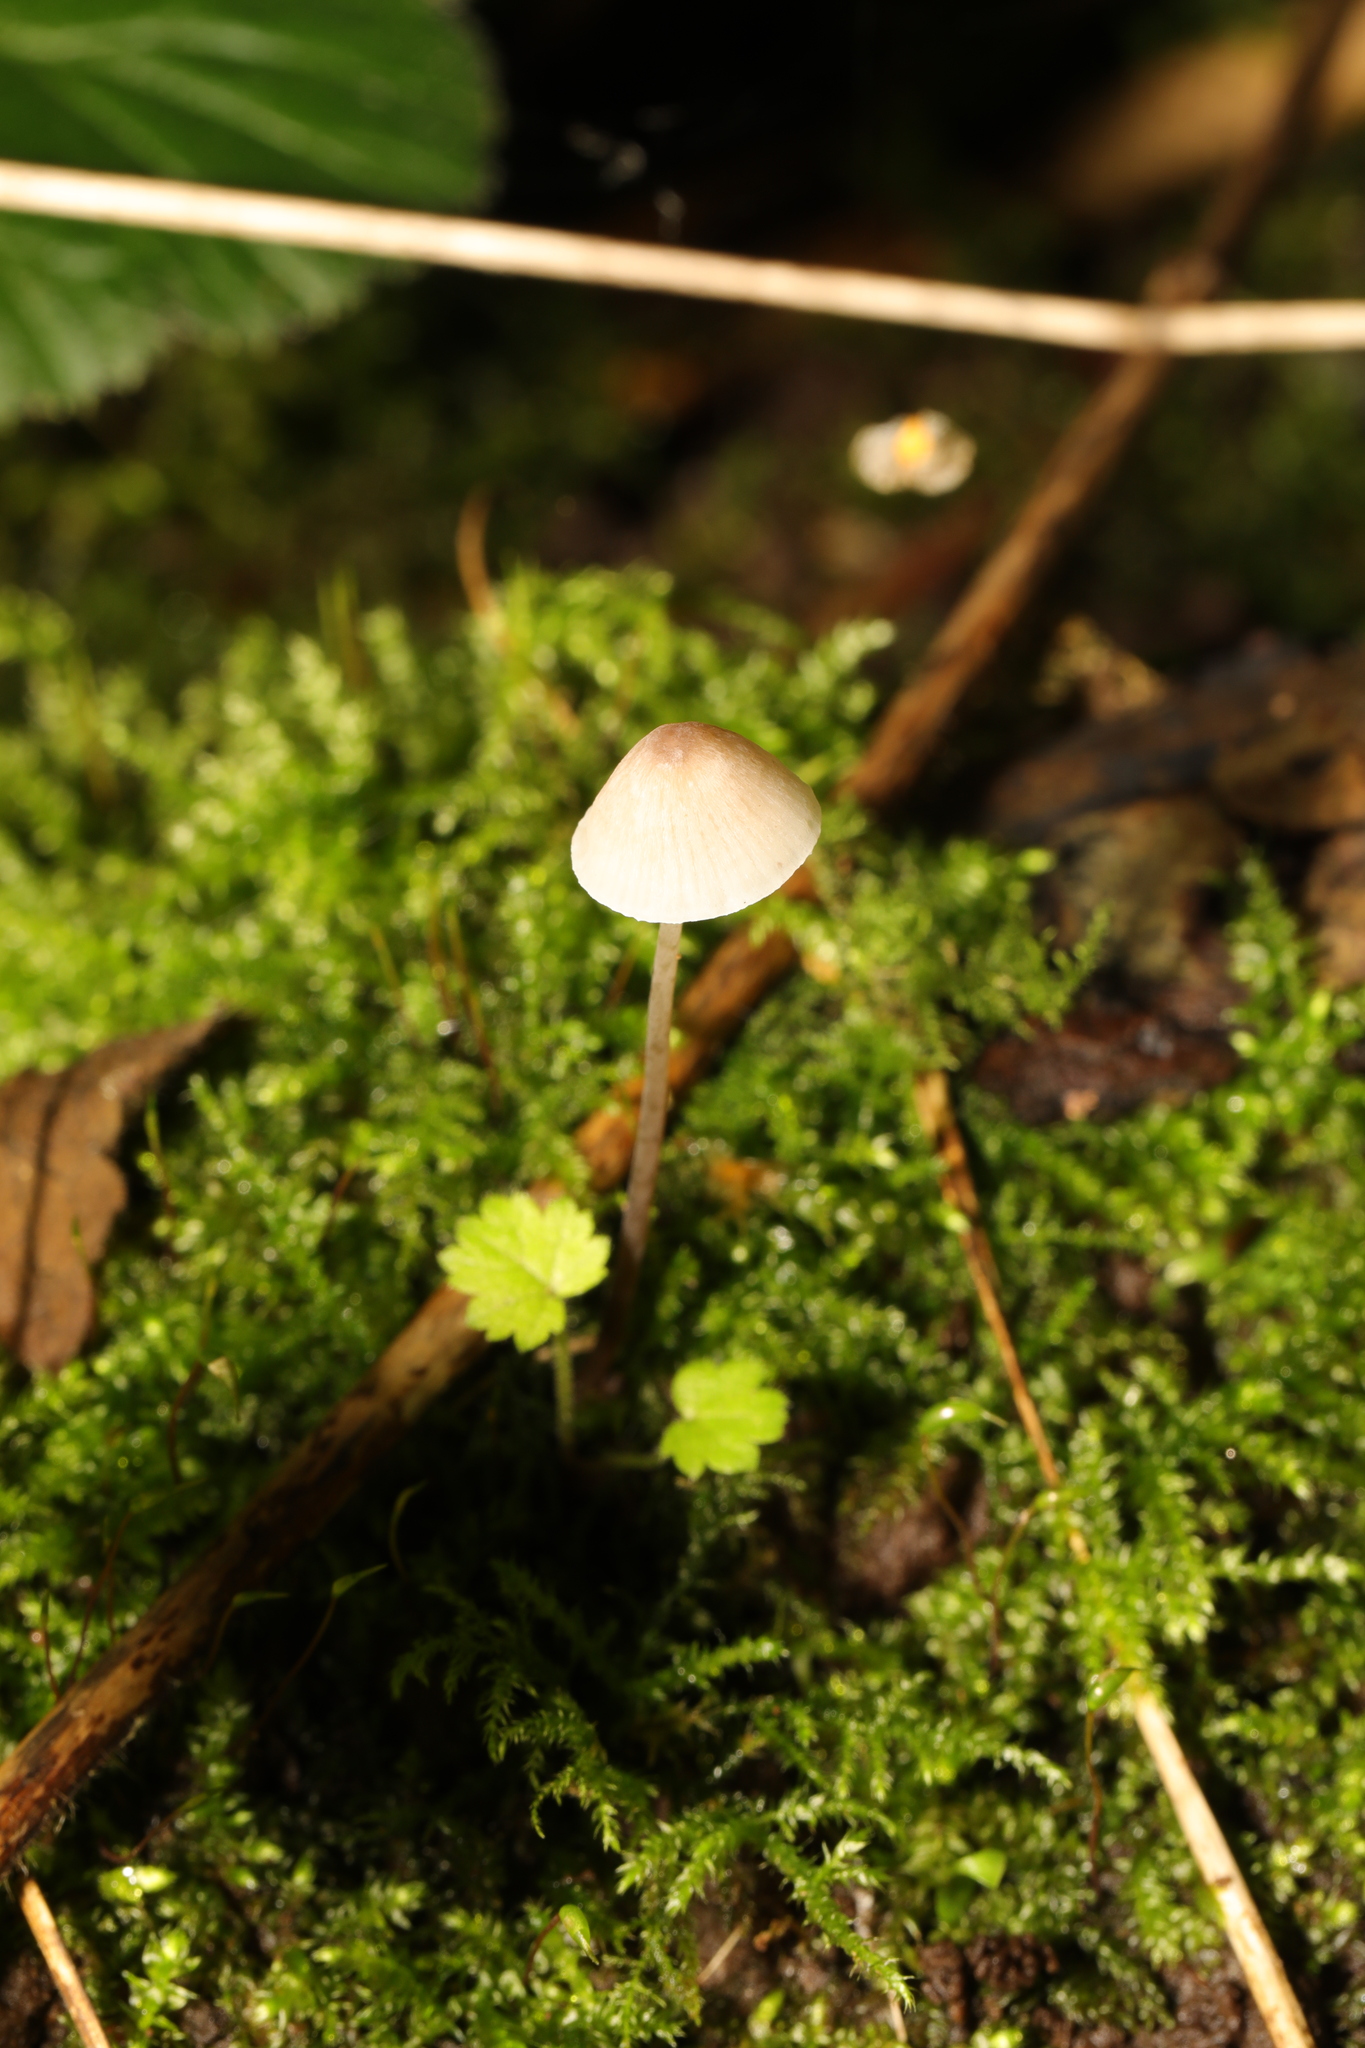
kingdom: Fungi
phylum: Basidiomycota
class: Agaricomycetes
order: Agaricales
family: Mycenaceae
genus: Mycena
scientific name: Mycena
